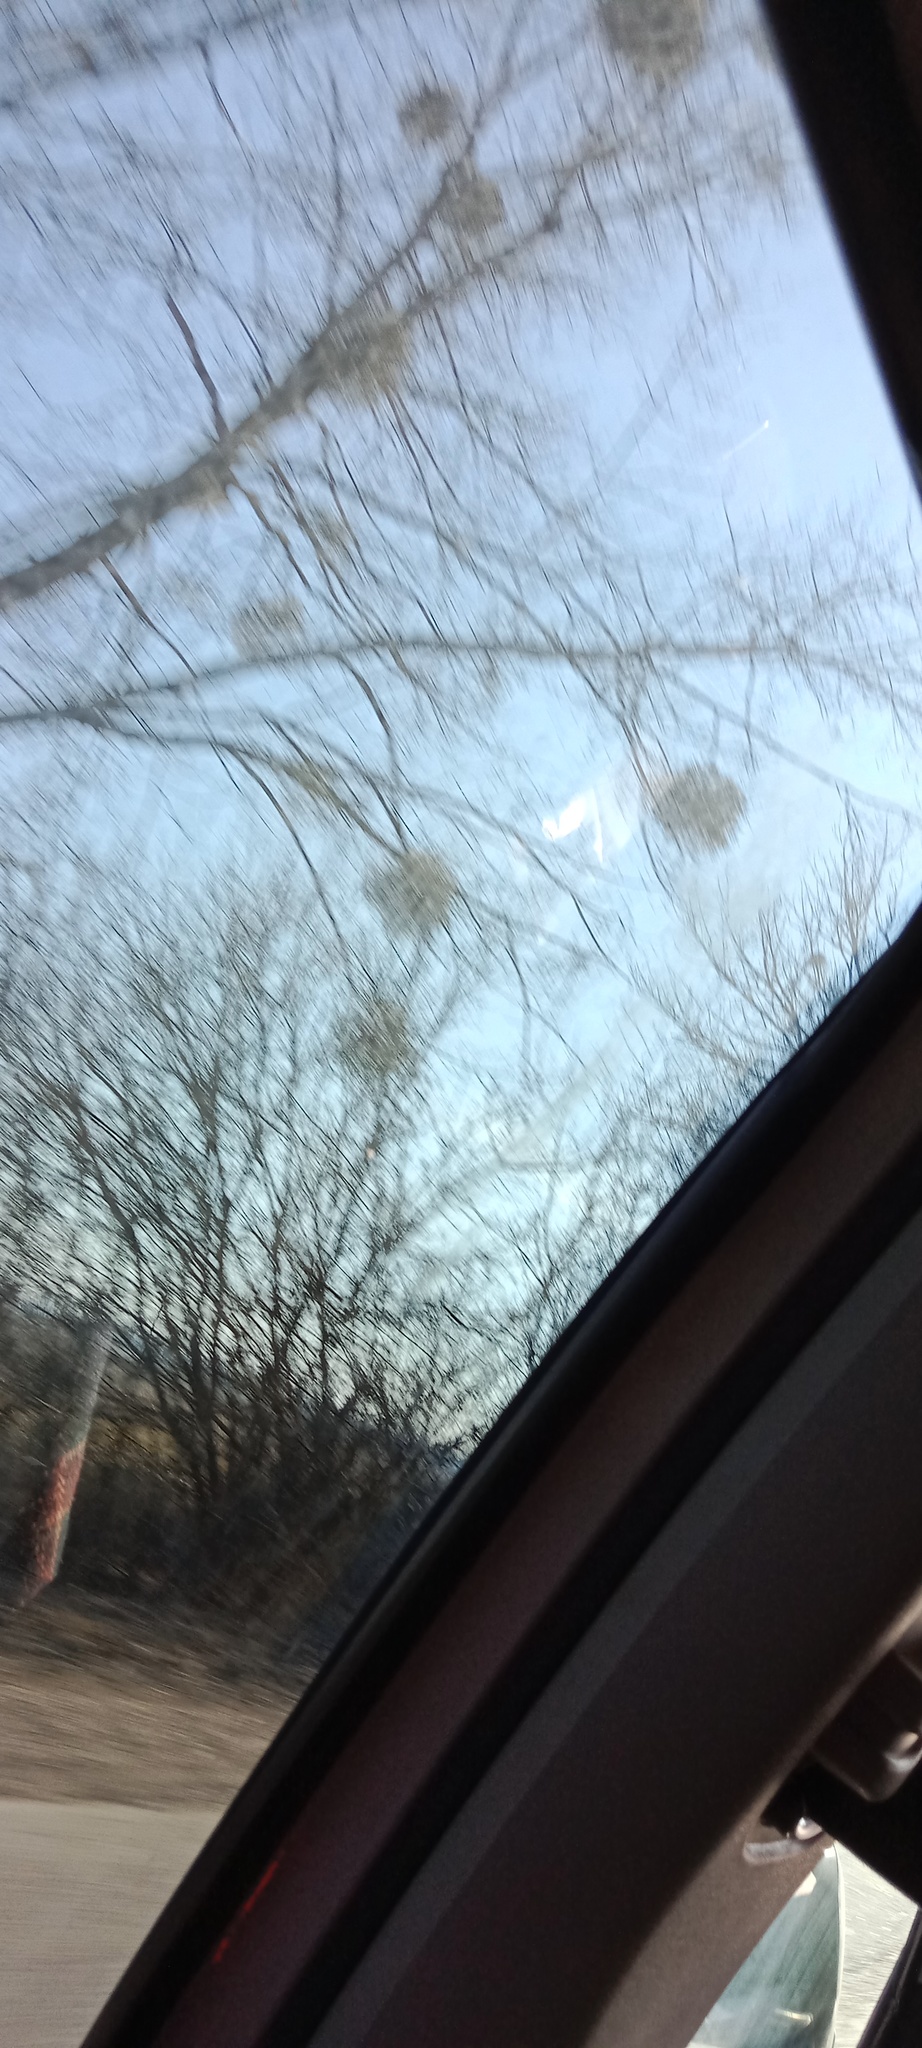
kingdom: Plantae
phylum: Tracheophyta
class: Magnoliopsida
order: Santalales
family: Viscaceae
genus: Viscum
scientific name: Viscum album
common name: Mistletoe
